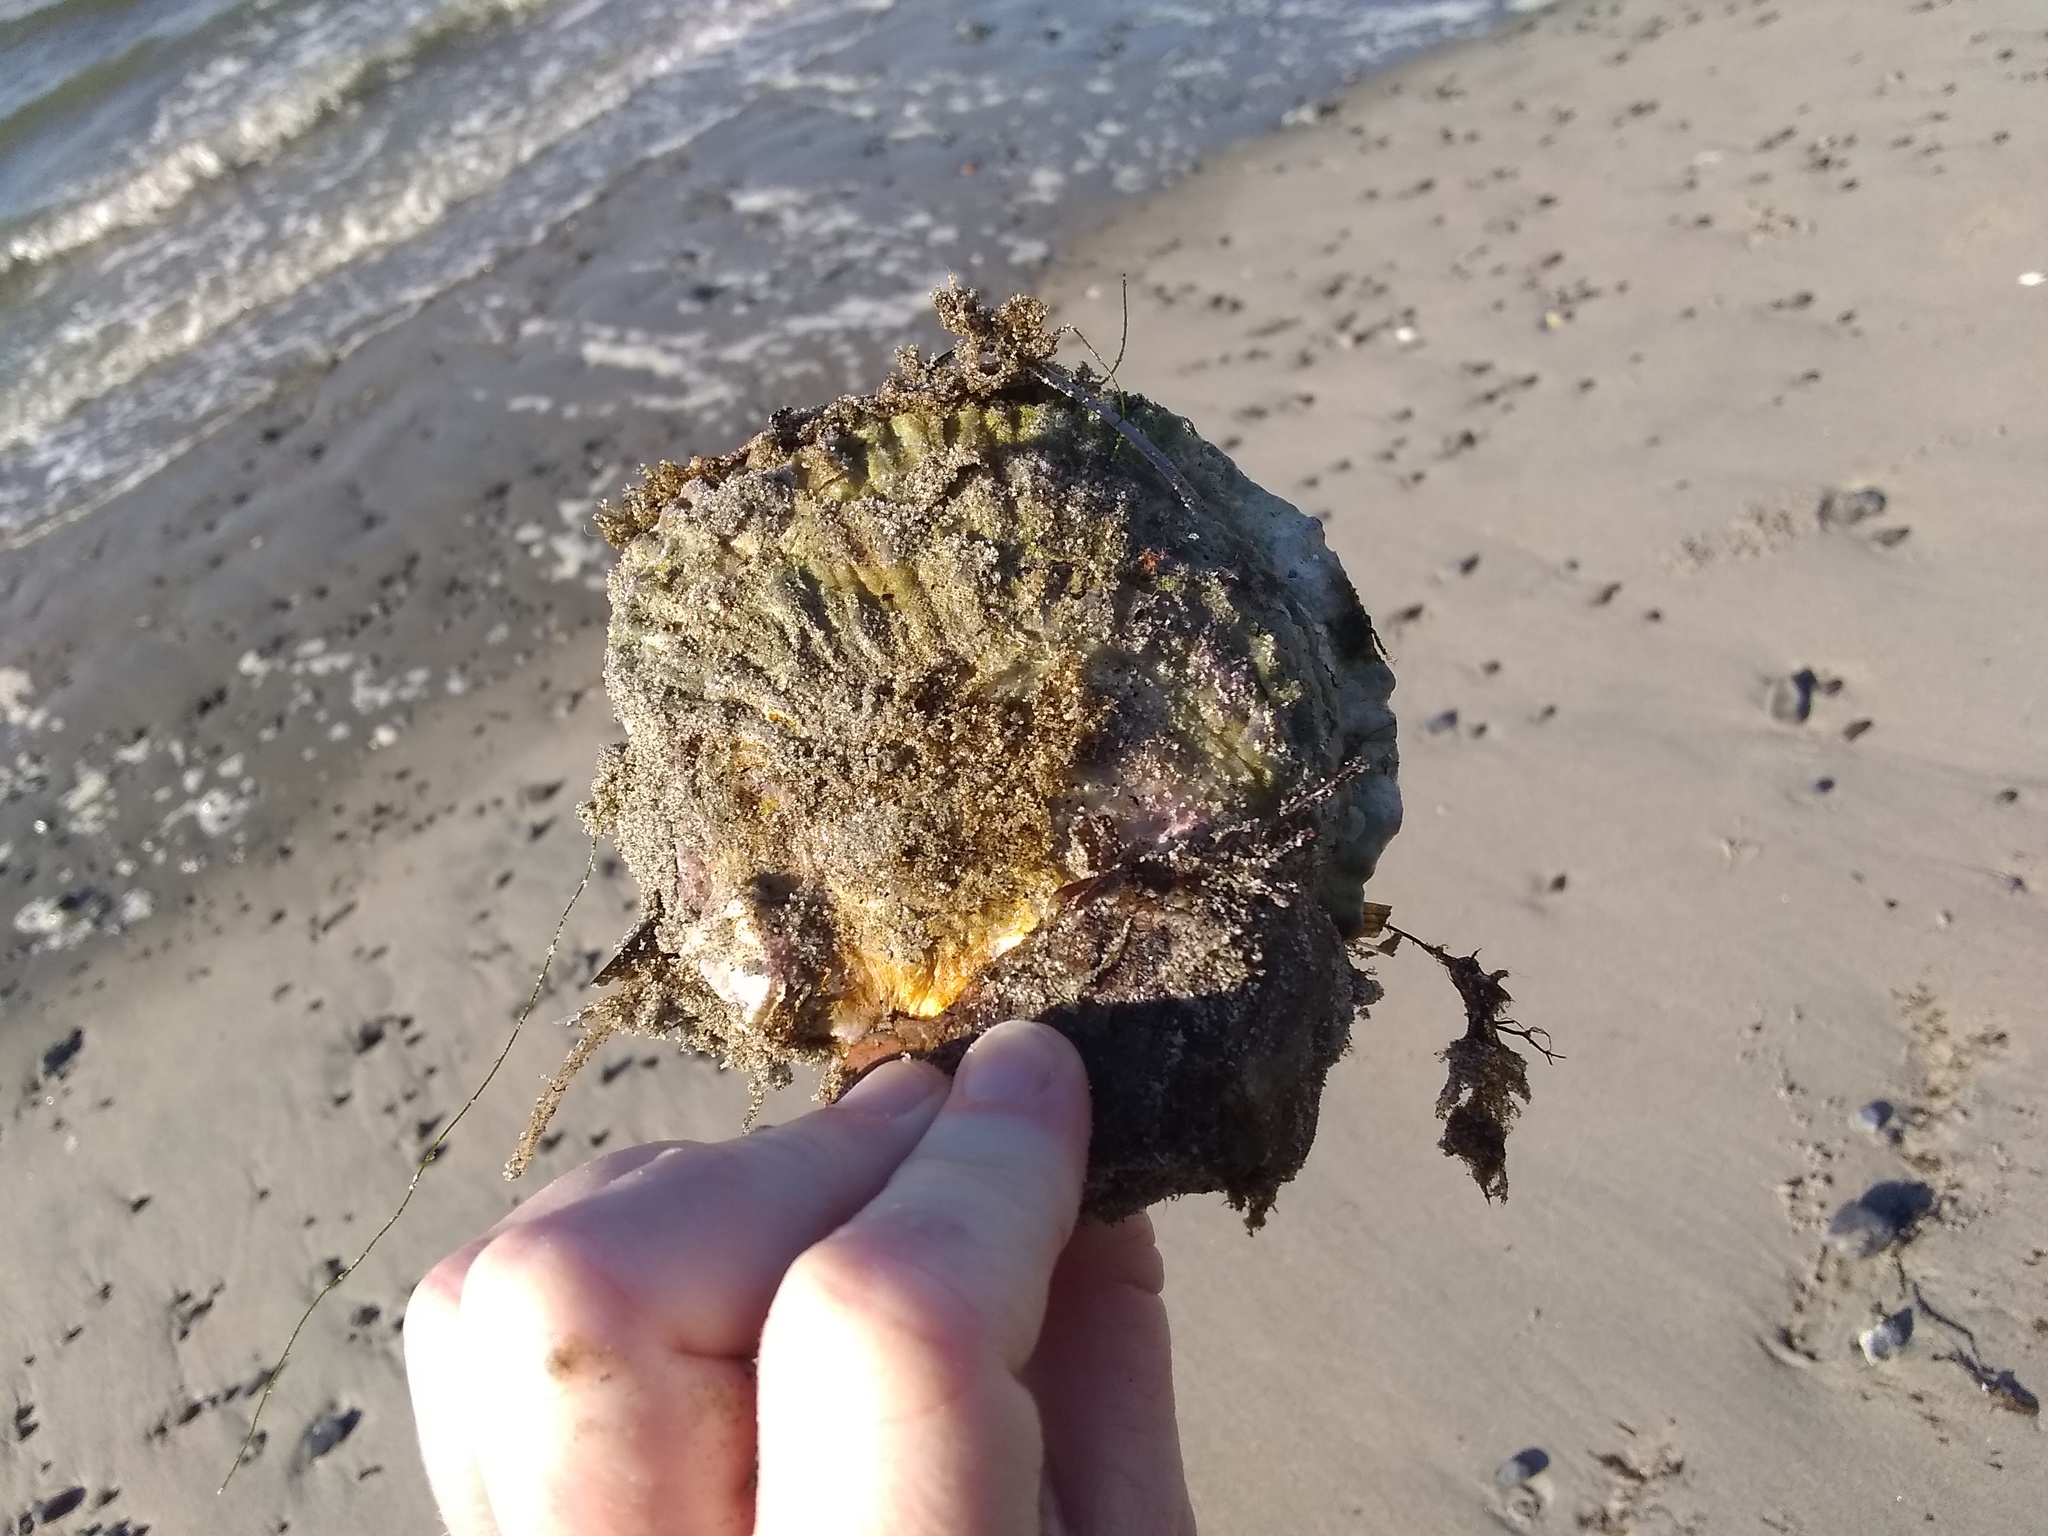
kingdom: Animalia
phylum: Mollusca
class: Bivalvia
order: Ostreida
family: Ostreidae
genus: Ostrea
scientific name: Ostrea edulis
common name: Flat oyster
